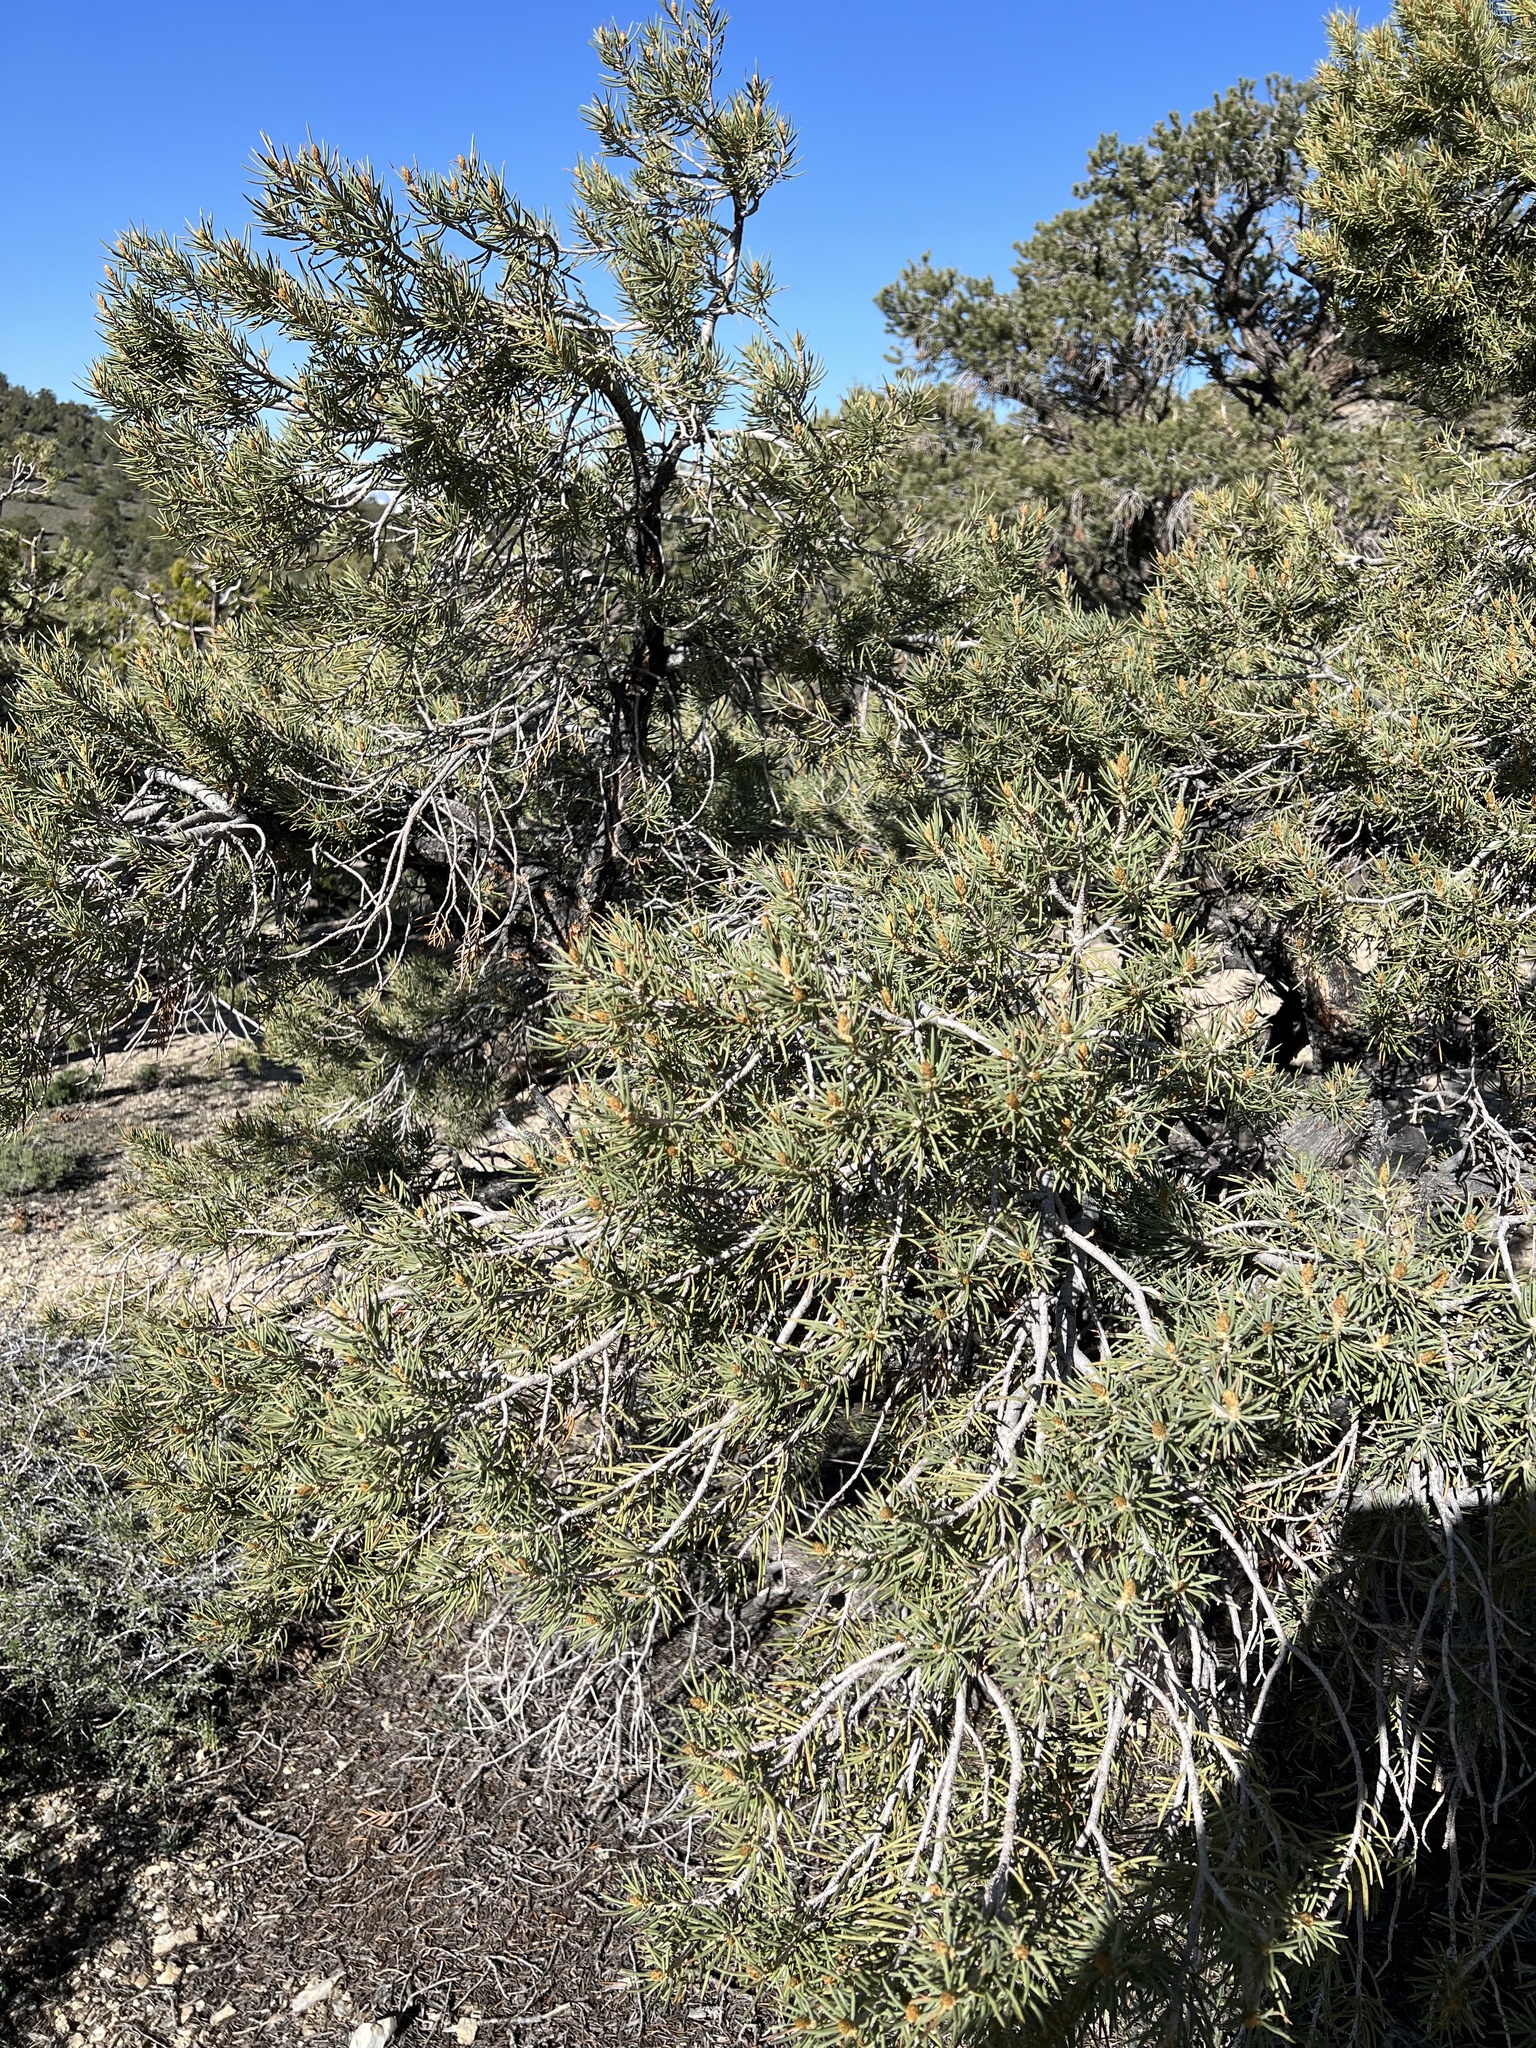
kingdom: Plantae
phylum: Tracheophyta
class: Pinopsida
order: Pinales
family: Pinaceae
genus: Pinus
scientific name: Pinus monophylla
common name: One-leaved nut pine
